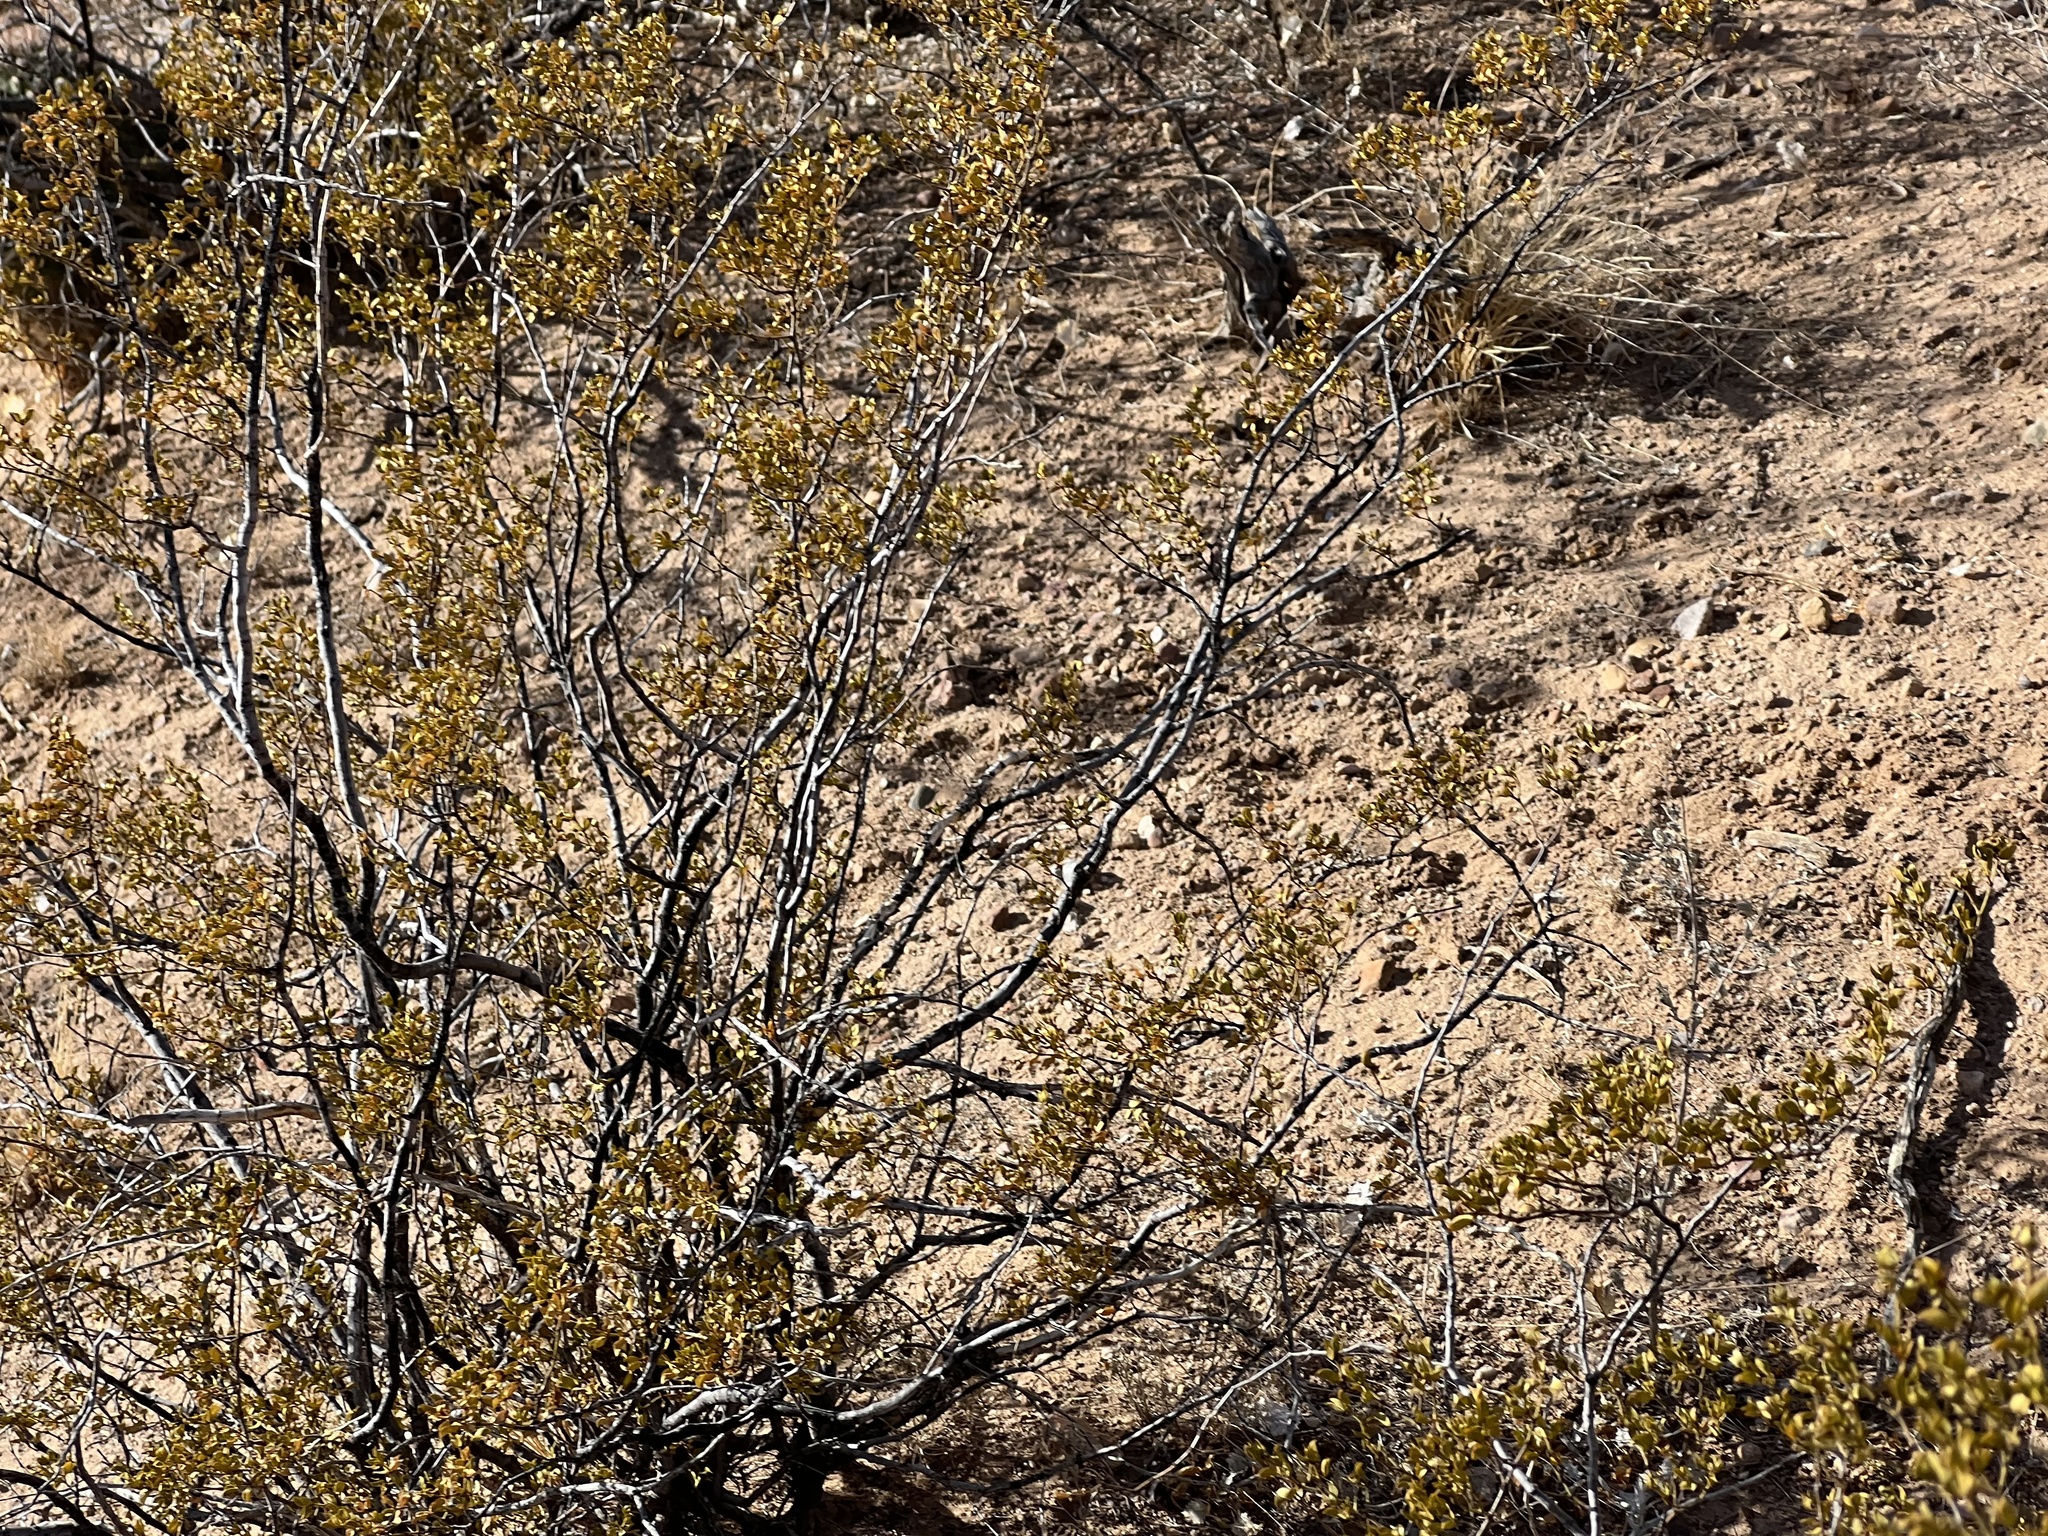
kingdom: Plantae
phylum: Tracheophyta
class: Magnoliopsida
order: Zygophyllales
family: Zygophyllaceae
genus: Larrea
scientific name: Larrea tridentata
